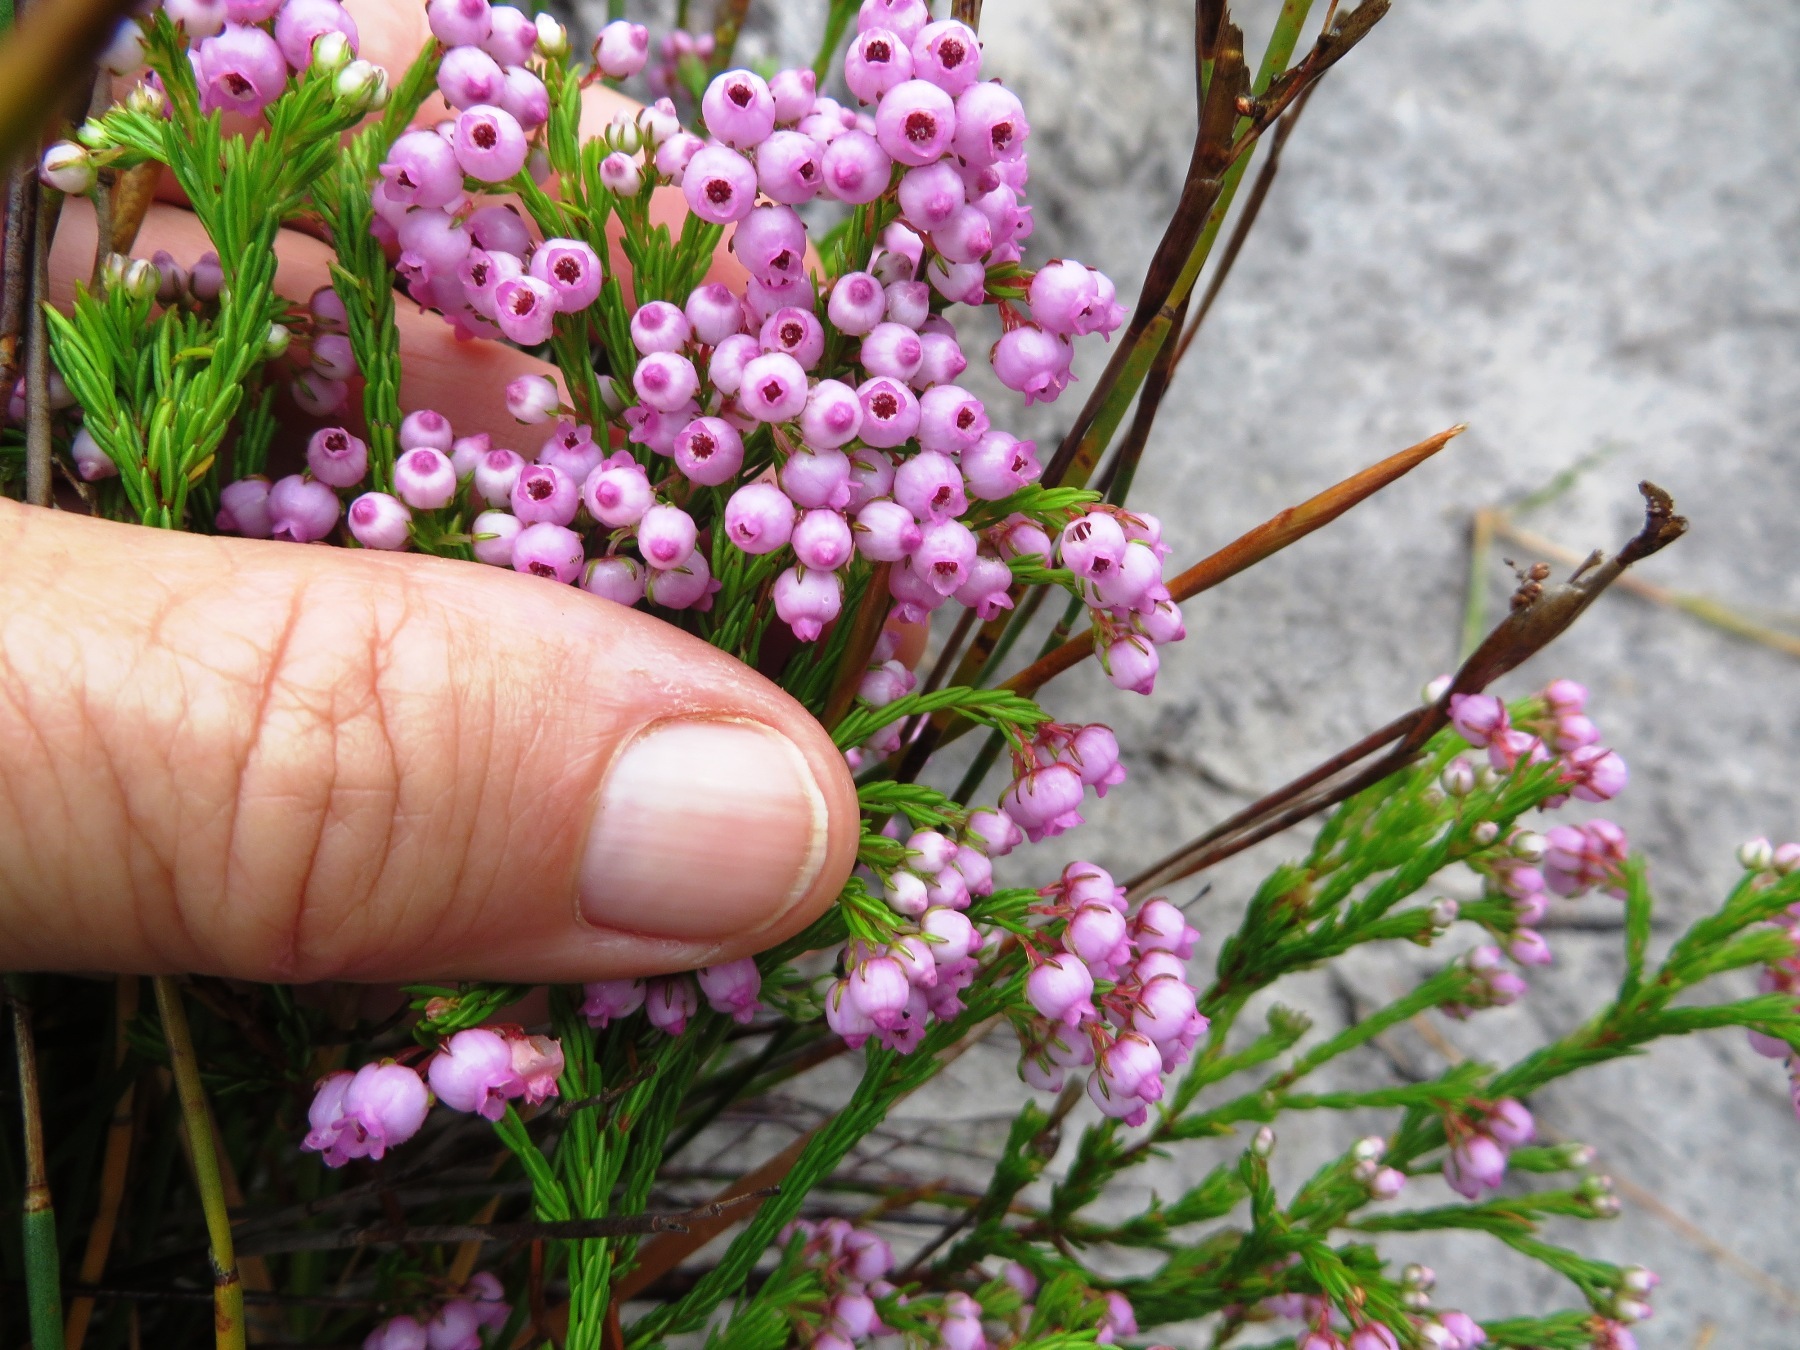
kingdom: Plantae
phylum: Tracheophyta
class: Magnoliopsida
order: Ericales
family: Ericaceae
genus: Erica
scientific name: Erica laeta
